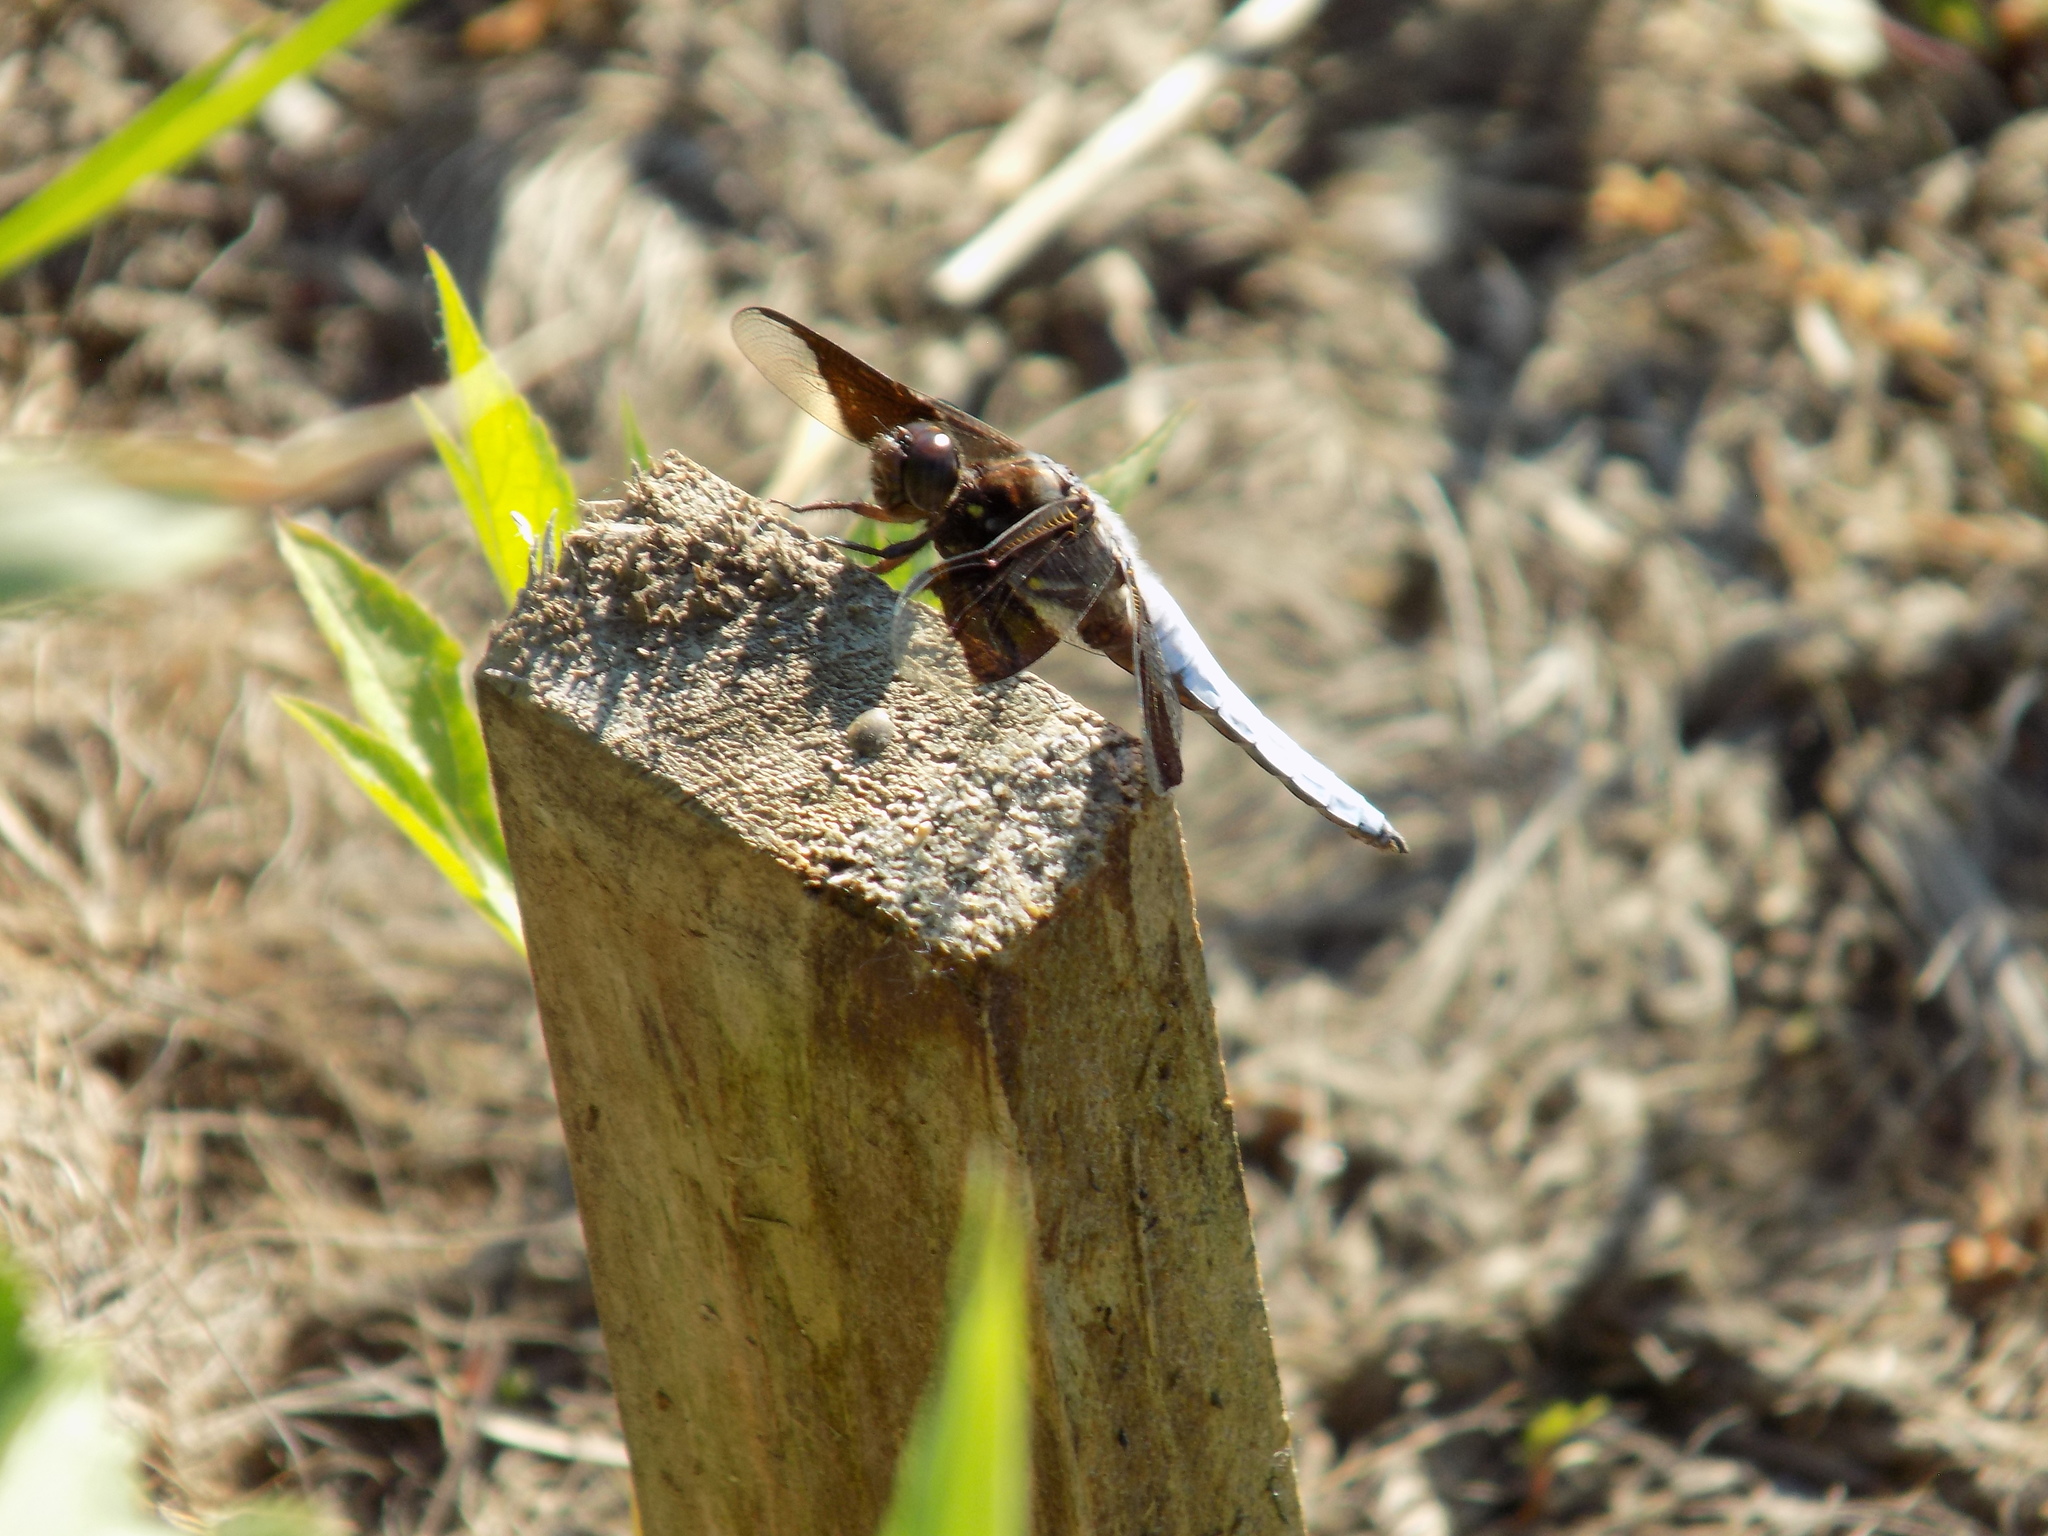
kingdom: Animalia
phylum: Arthropoda
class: Insecta
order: Odonata
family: Libellulidae
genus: Plathemis
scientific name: Plathemis lydia
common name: Common whitetail
